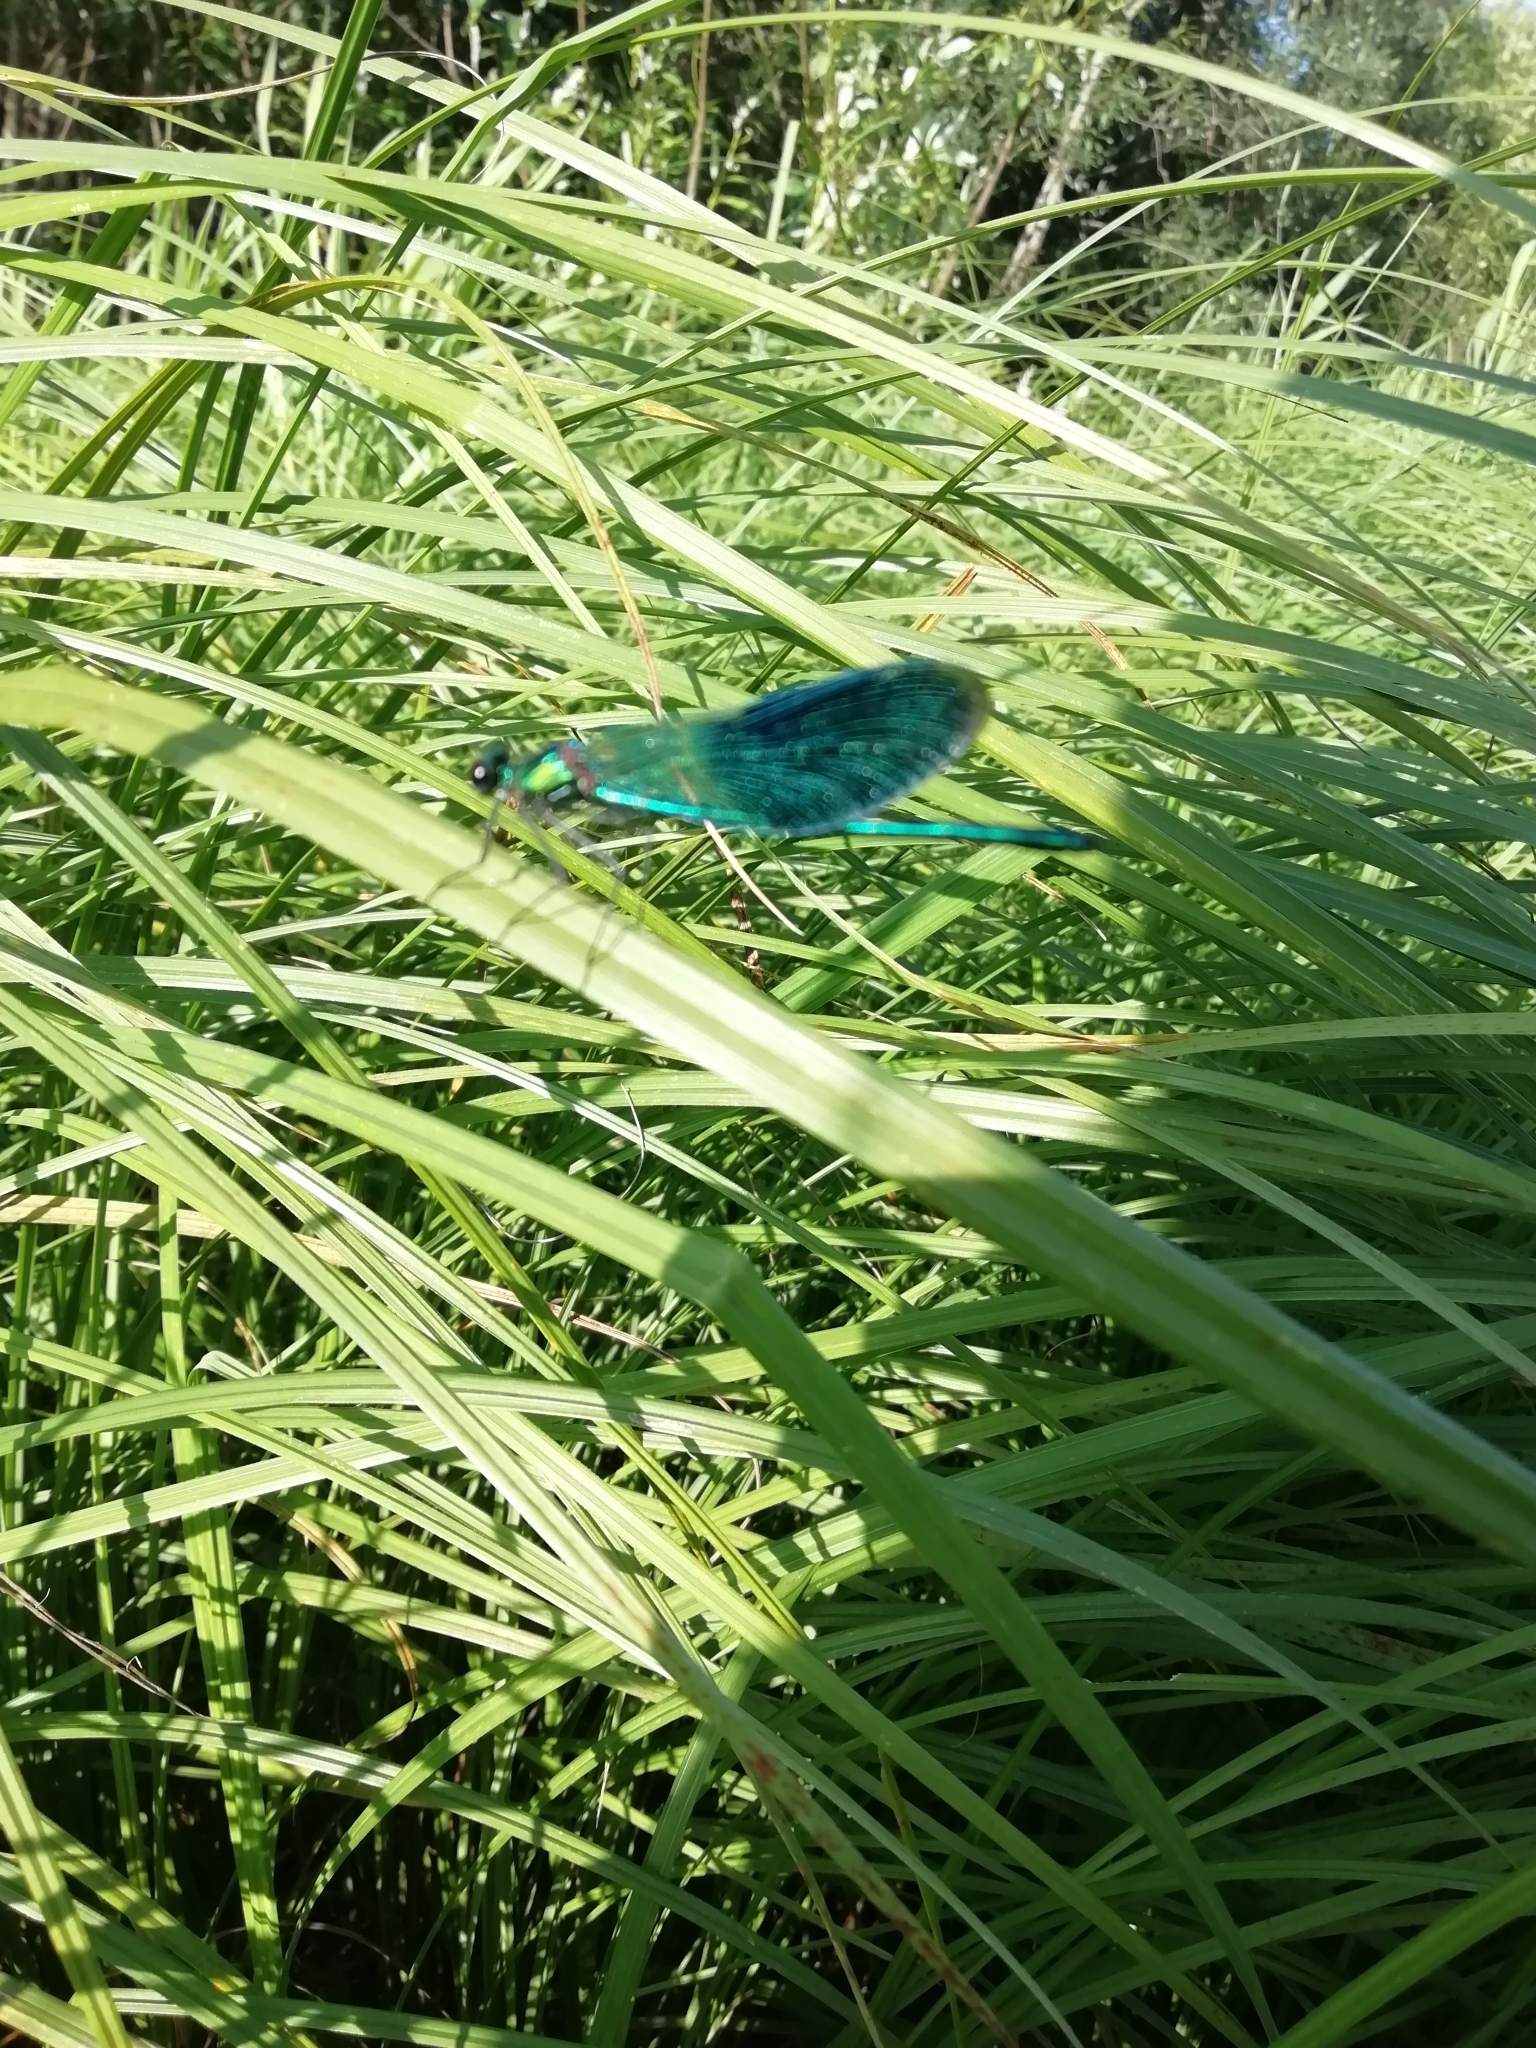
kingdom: Animalia
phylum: Arthropoda
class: Insecta
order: Odonata
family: Calopterygidae
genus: Calopteryx
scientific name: Calopteryx splendens
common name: Banded demoiselle
